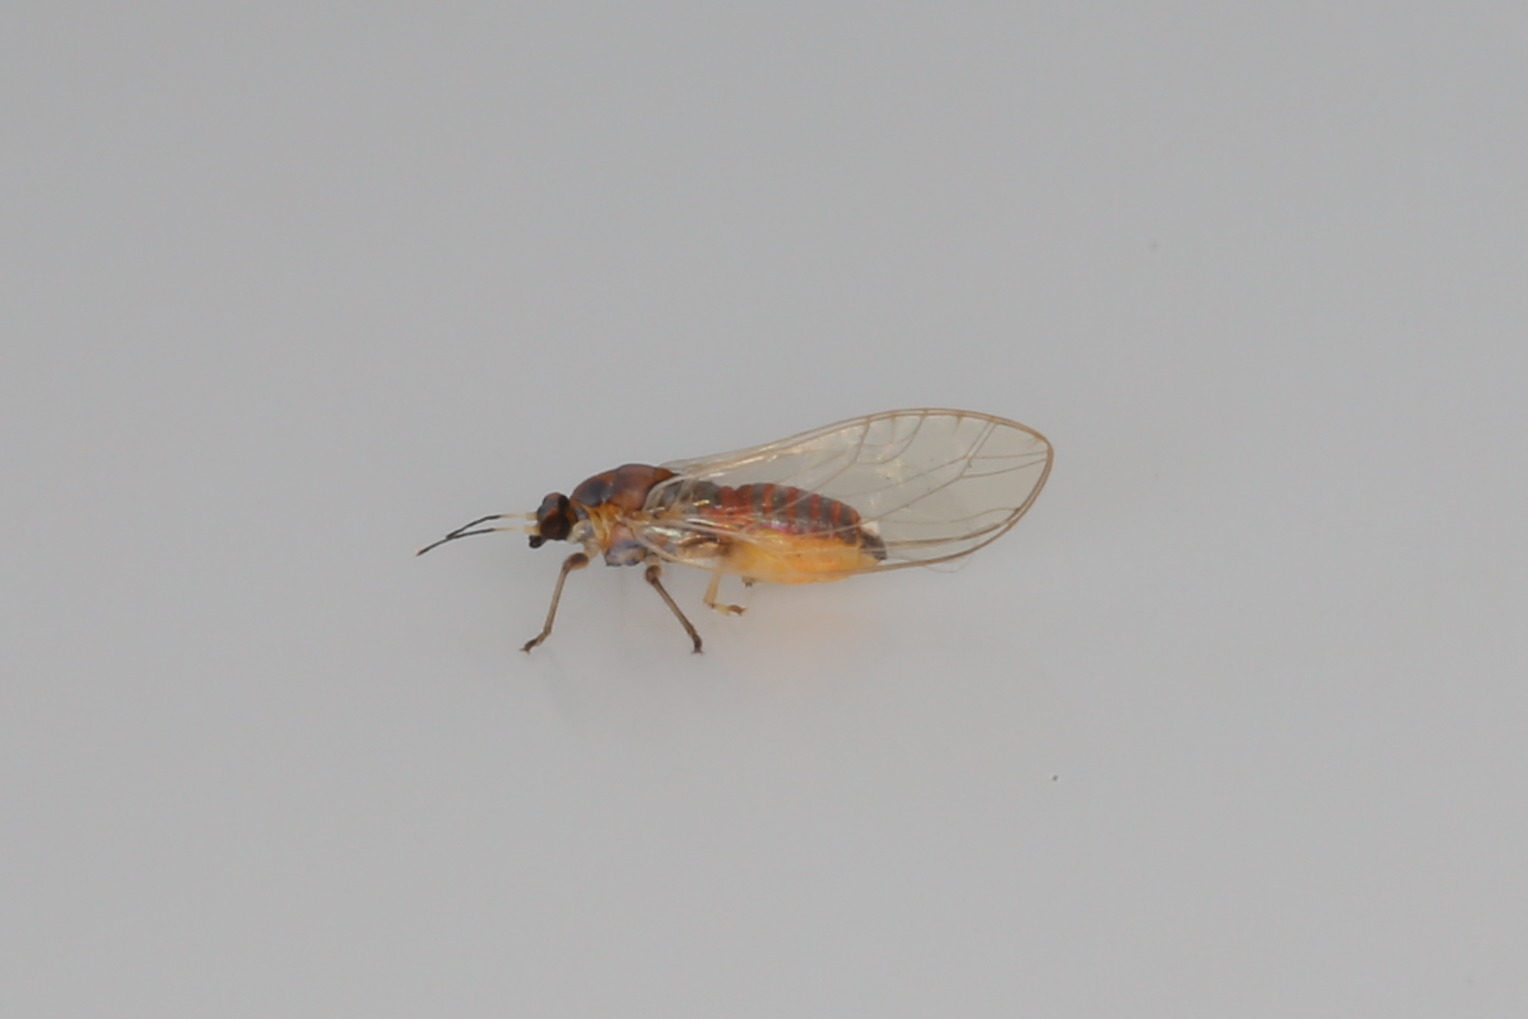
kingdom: Animalia
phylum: Arthropoda
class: Insecta
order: Hemiptera
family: Triozidae
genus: Bactericera
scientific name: Bactericera albiventris
